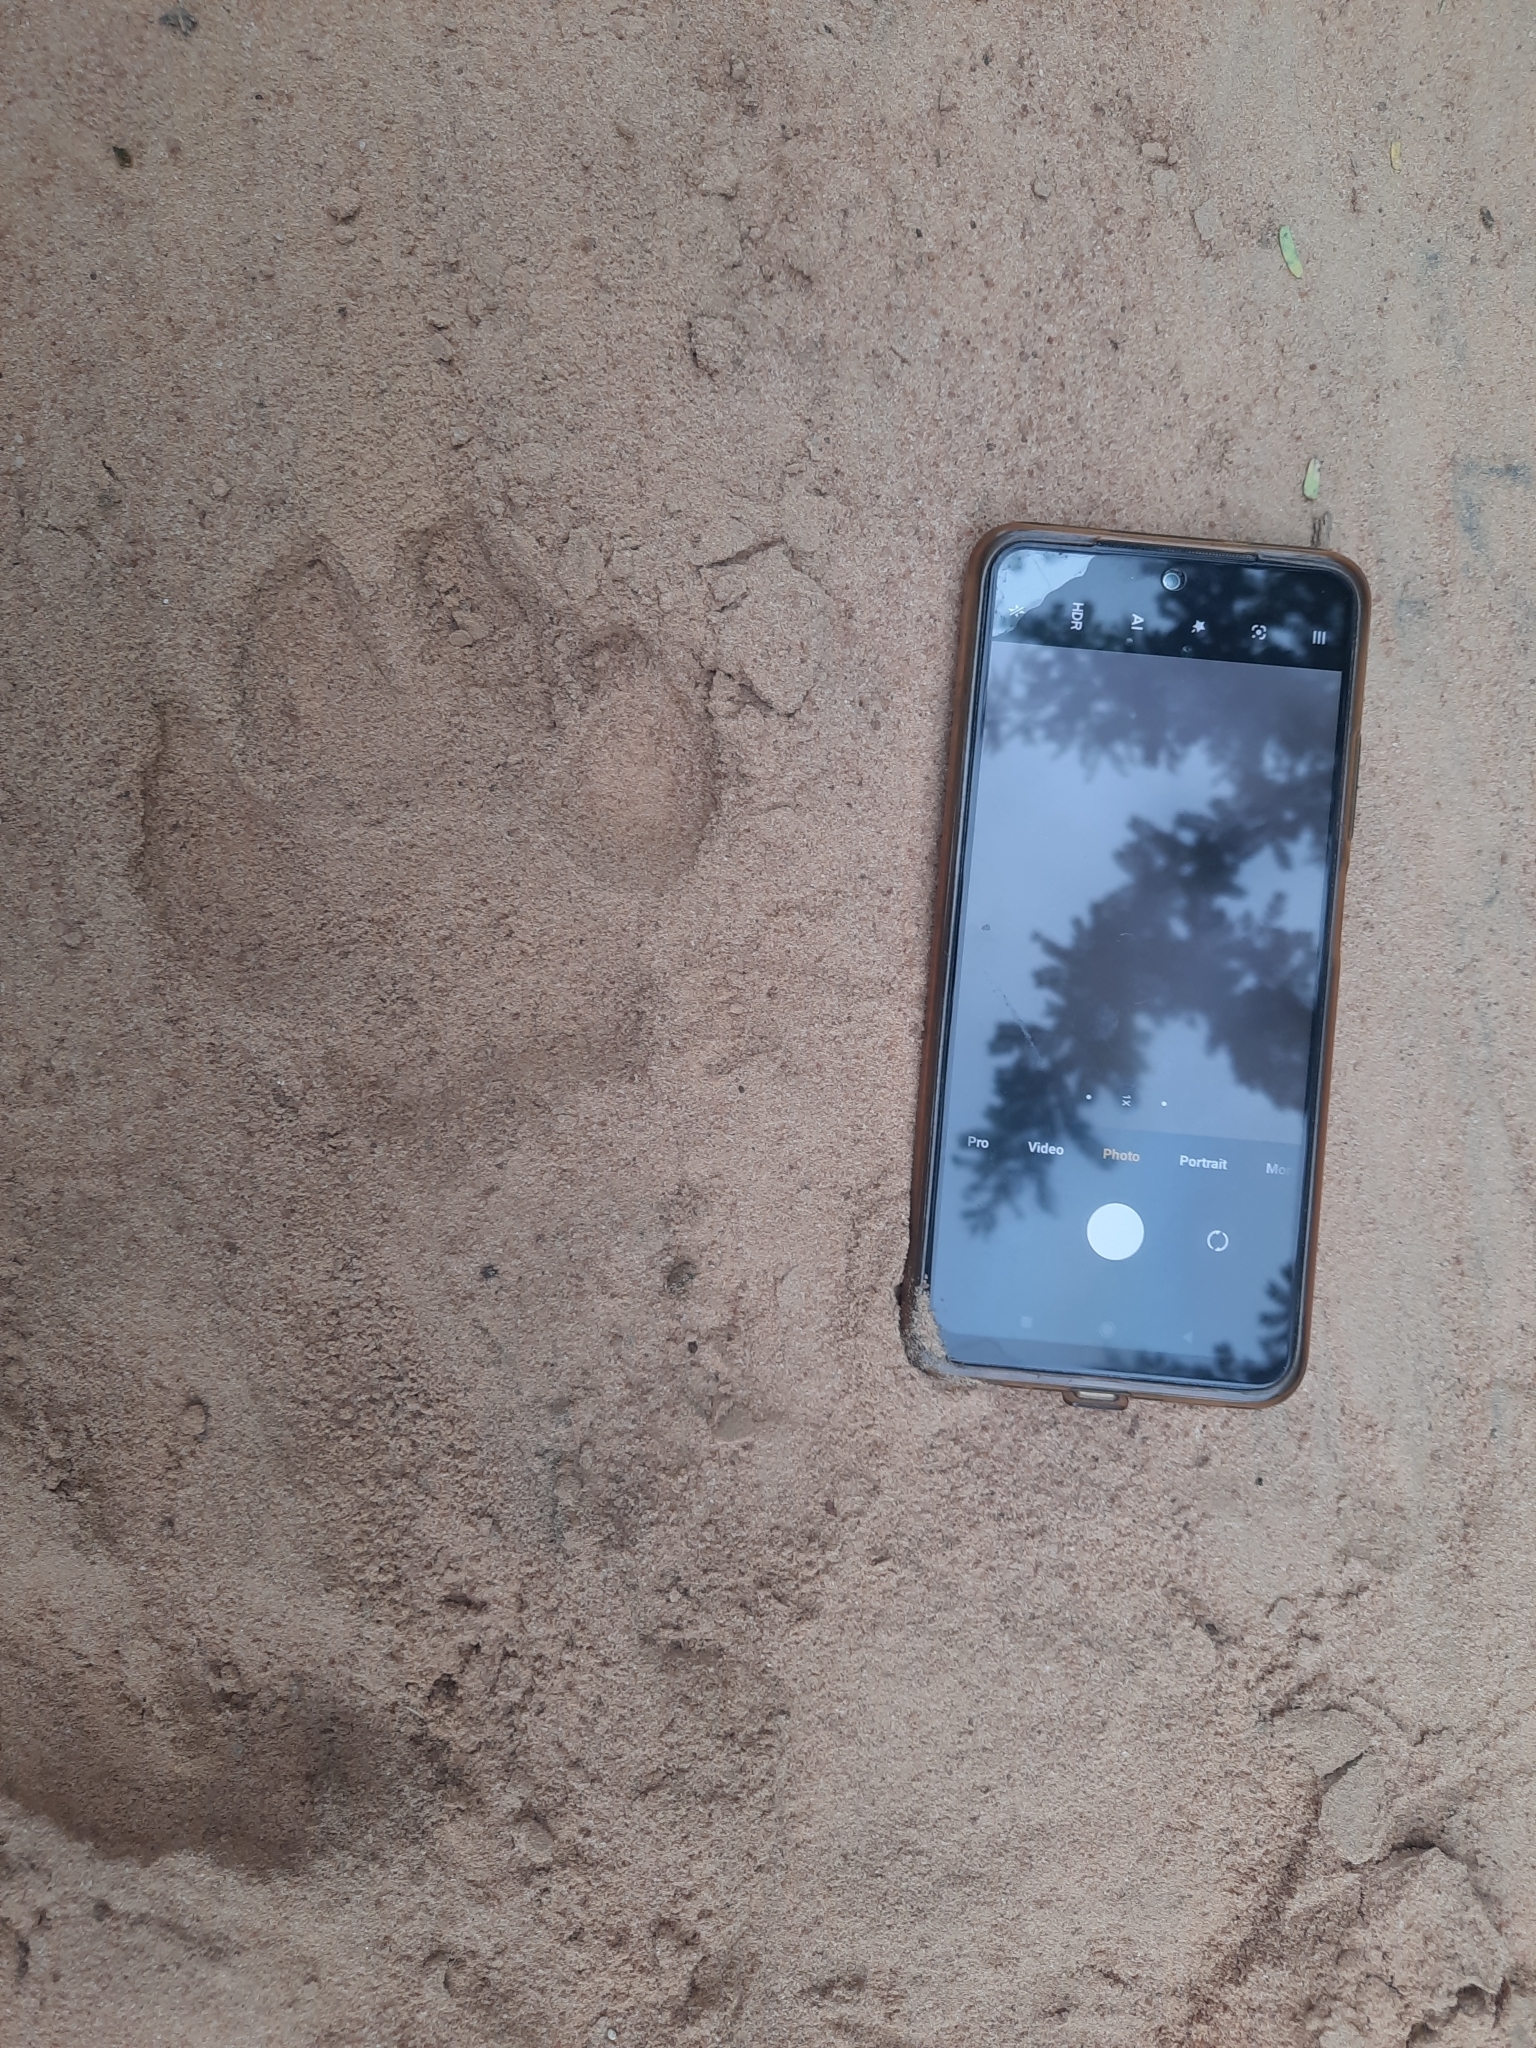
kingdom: Animalia
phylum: Chordata
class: Mammalia
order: Carnivora
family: Hyaenidae
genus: Hyaena
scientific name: Hyaena hyaena
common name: Striped hyaena
